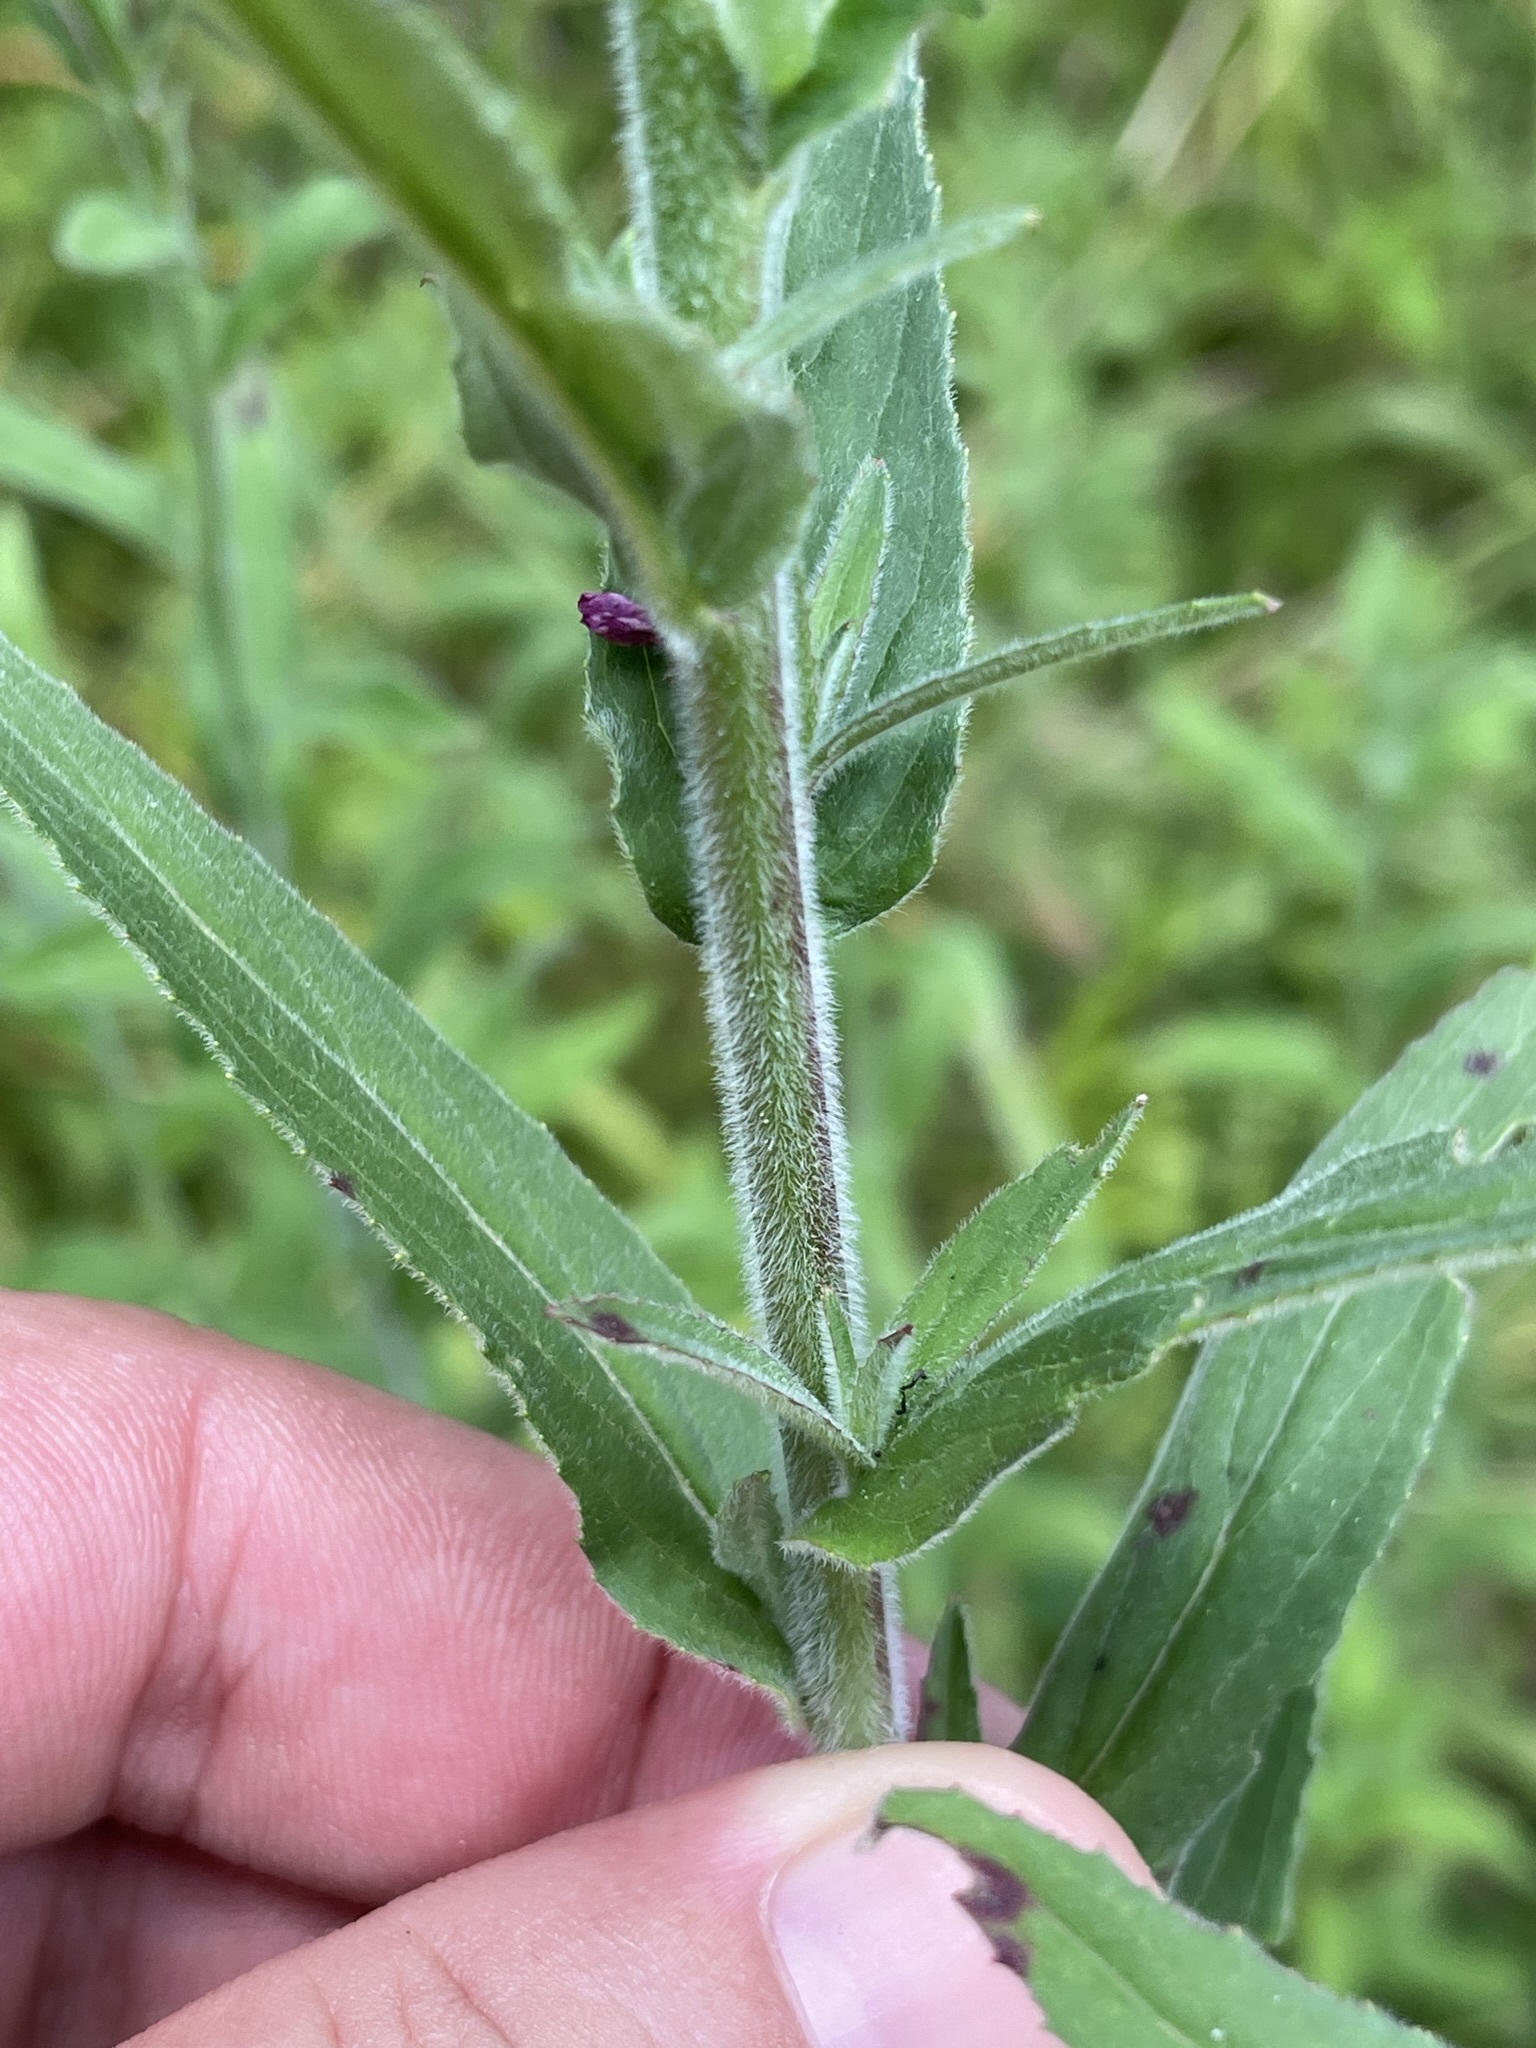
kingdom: Plantae
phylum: Tracheophyta
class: Magnoliopsida
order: Myrtales
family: Onagraceae
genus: Epilobium
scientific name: Epilobium hirsutum
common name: Great willowherb
